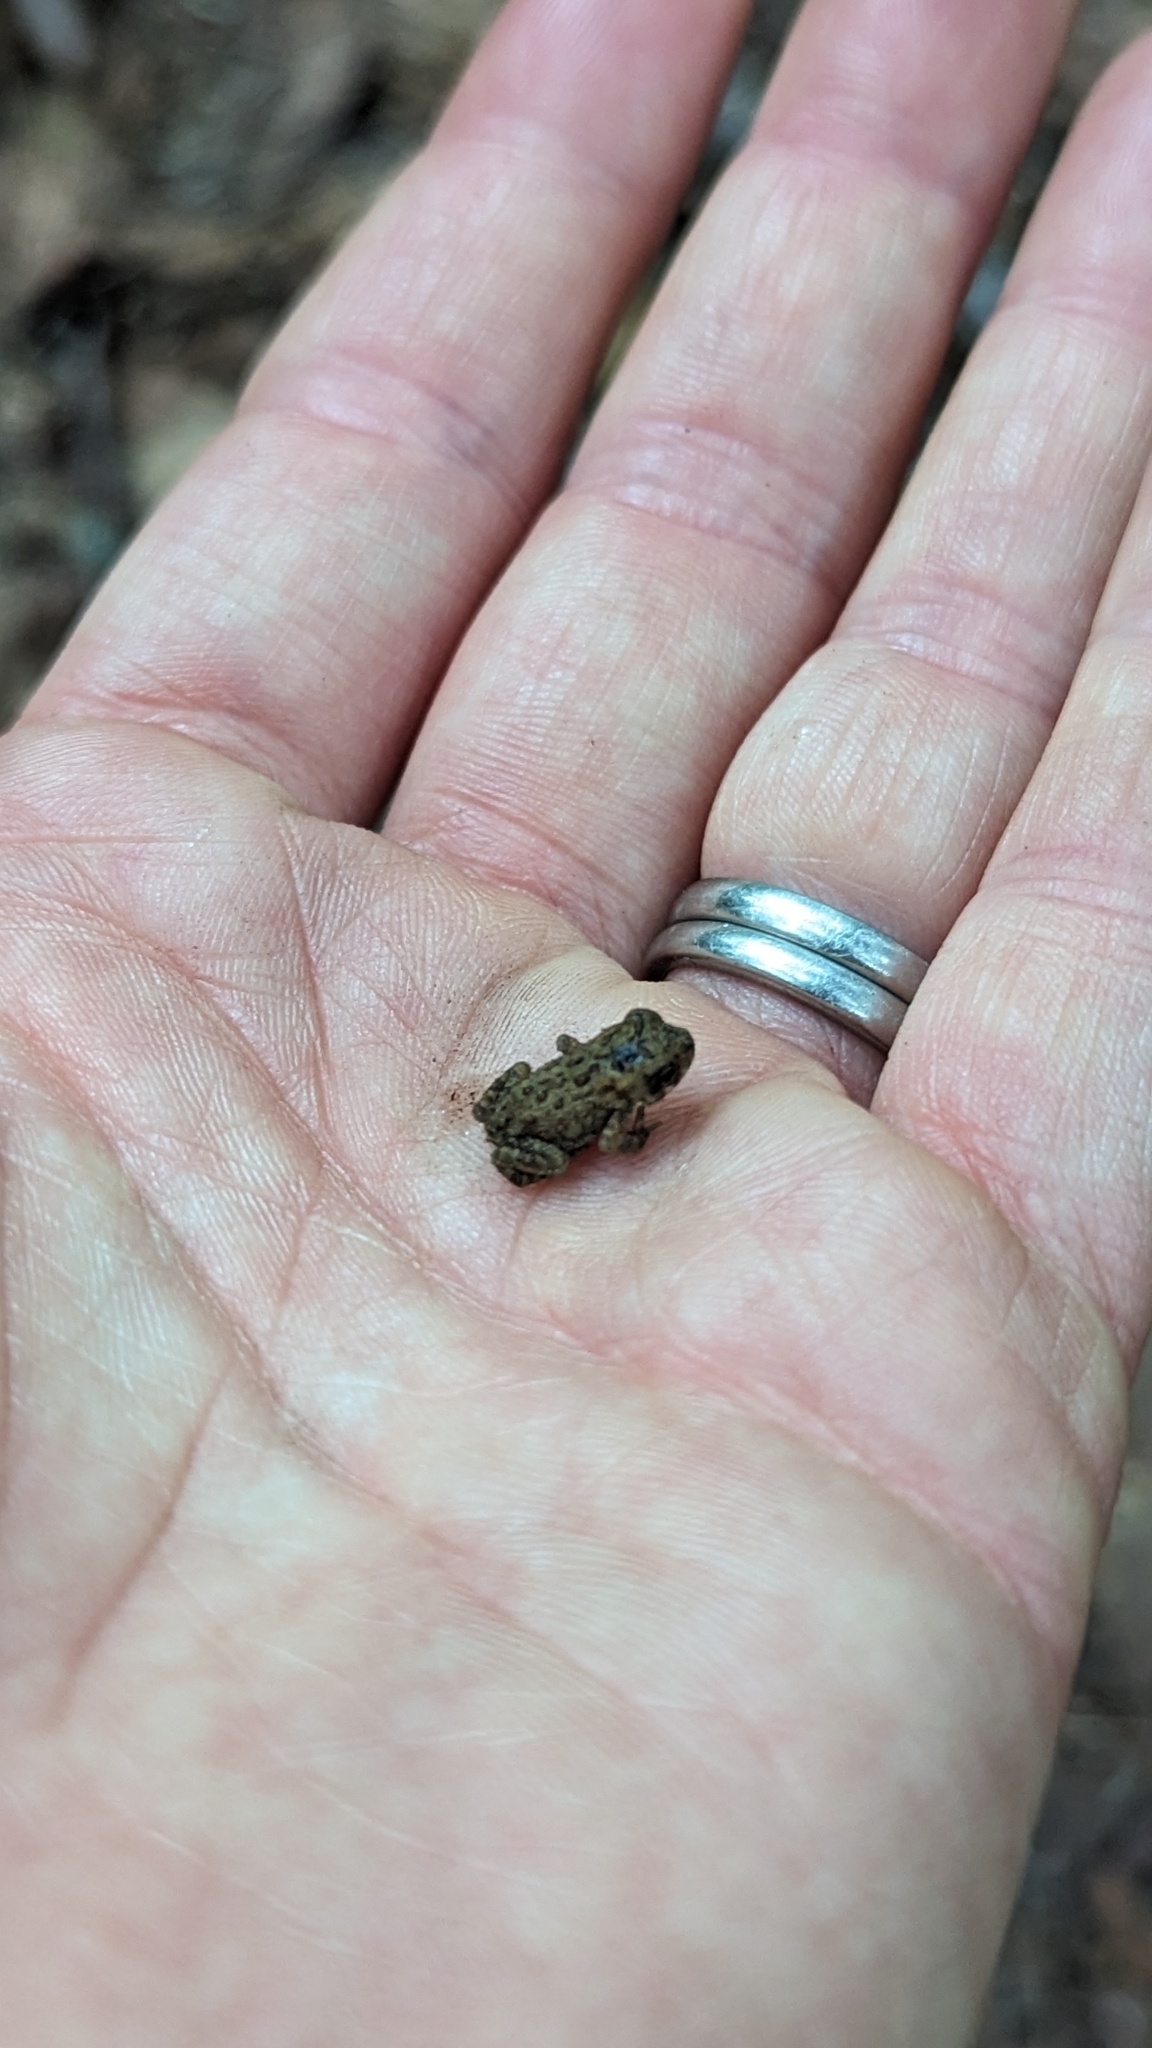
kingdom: Animalia
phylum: Chordata
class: Amphibia
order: Anura
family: Bufonidae
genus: Anaxyrus
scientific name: Anaxyrus americanus
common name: American toad
